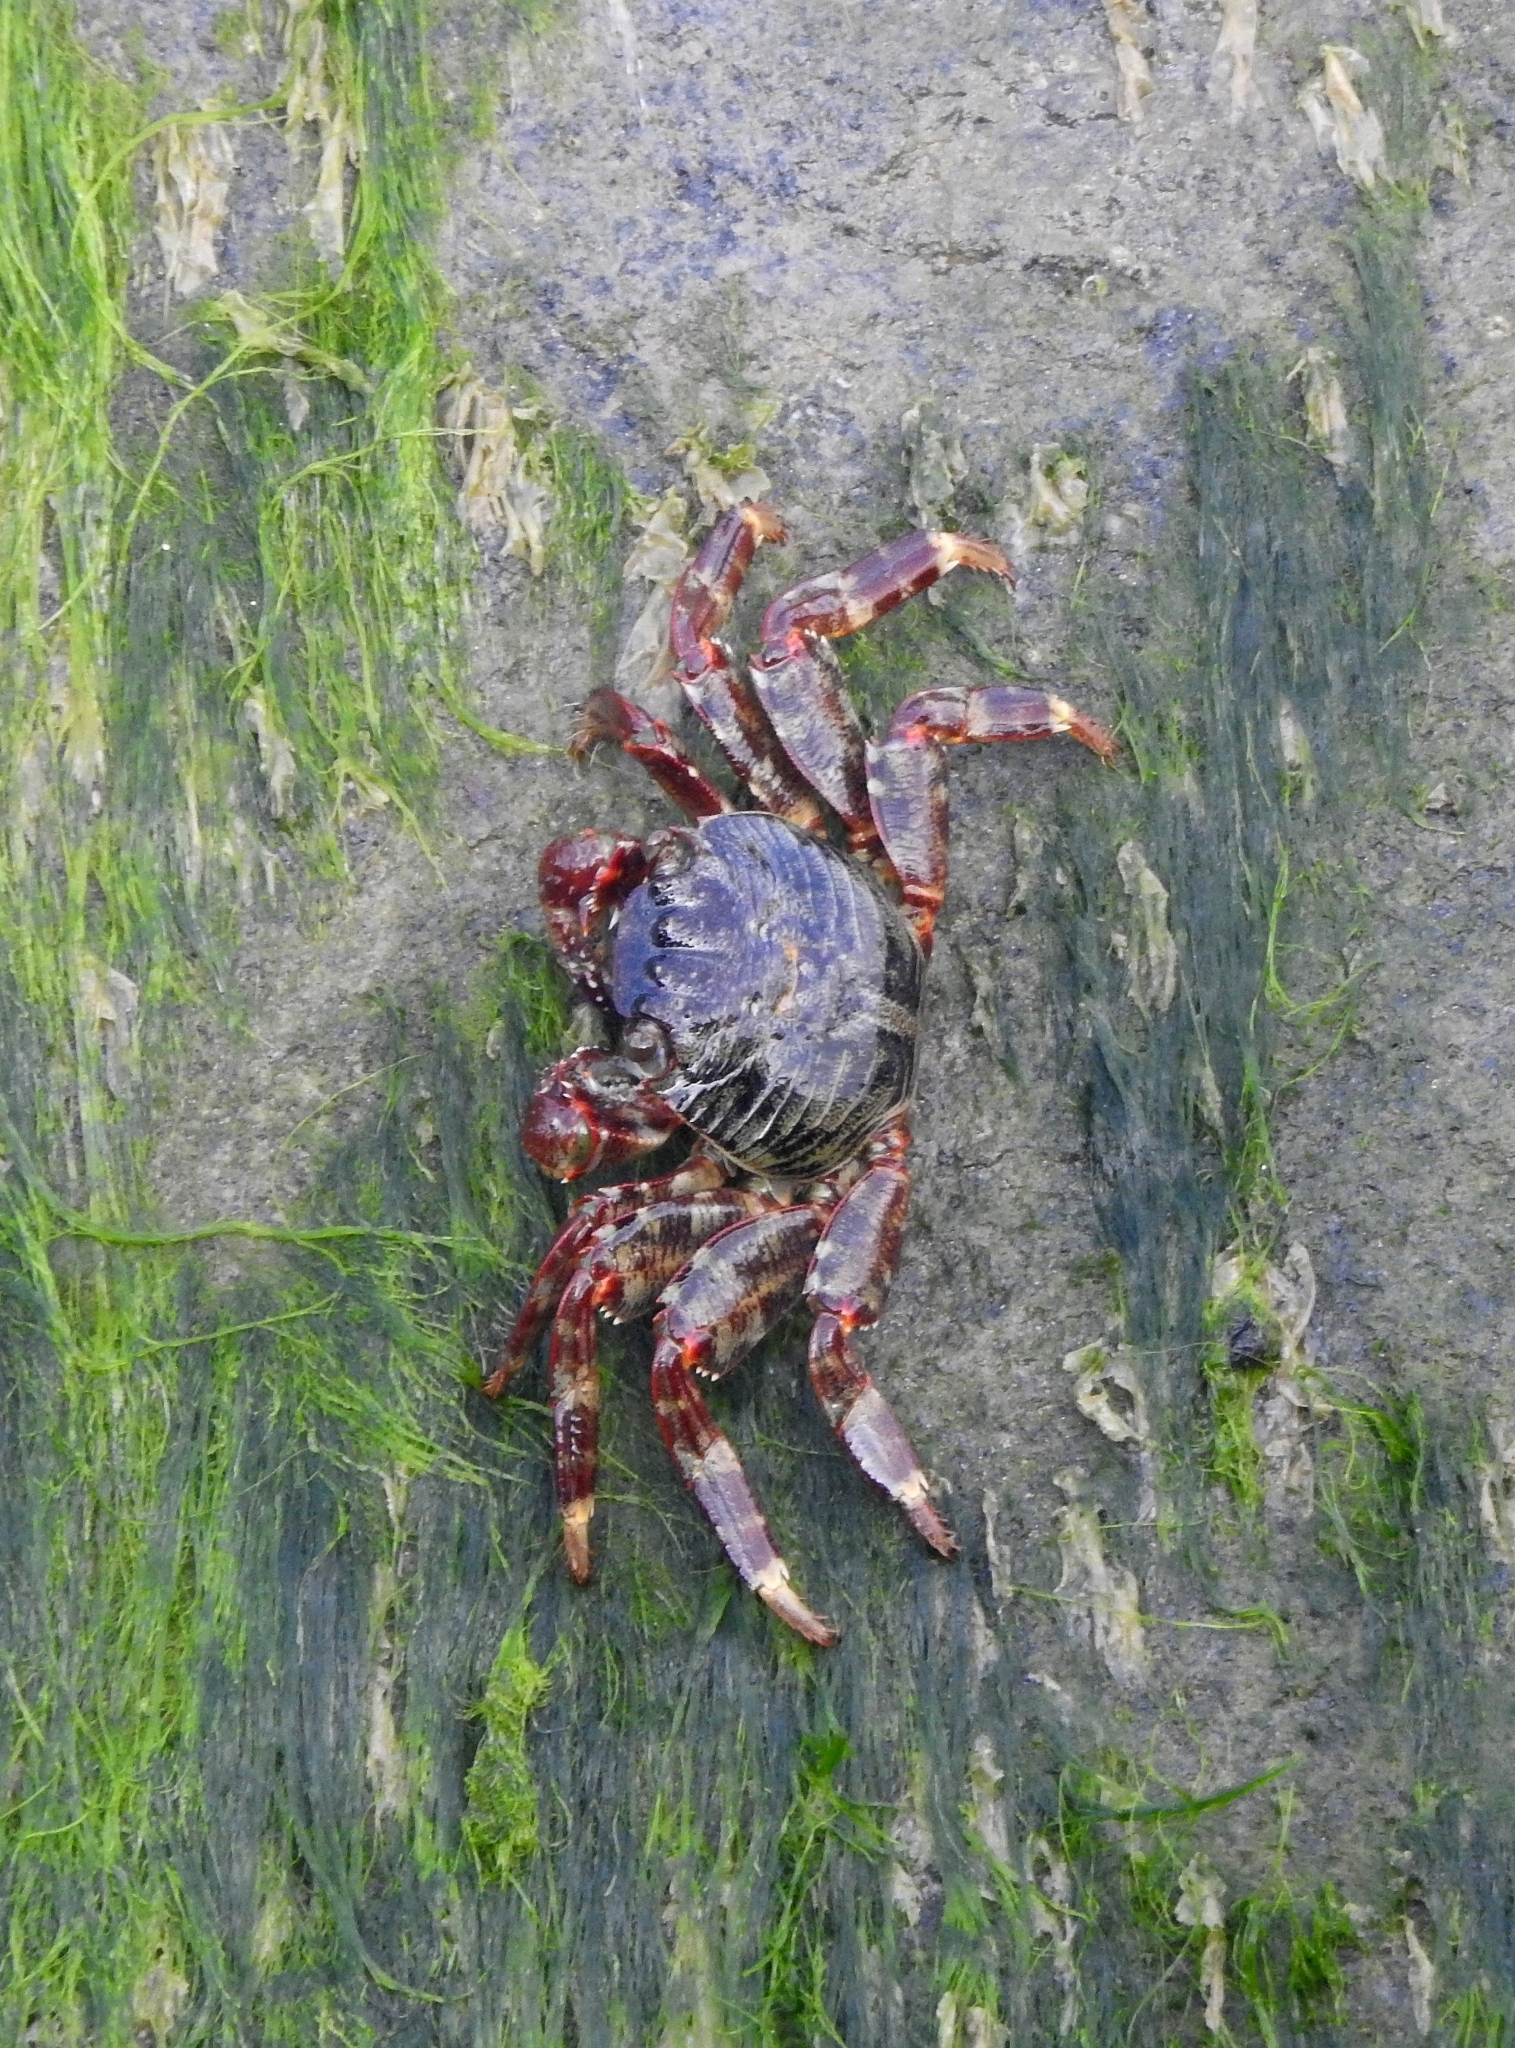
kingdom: Animalia
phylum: Arthropoda
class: Malacostraca
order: Decapoda
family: Grapsidae
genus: Grapsus
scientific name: Grapsus albolineatus
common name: Mottled lightfoot crab
